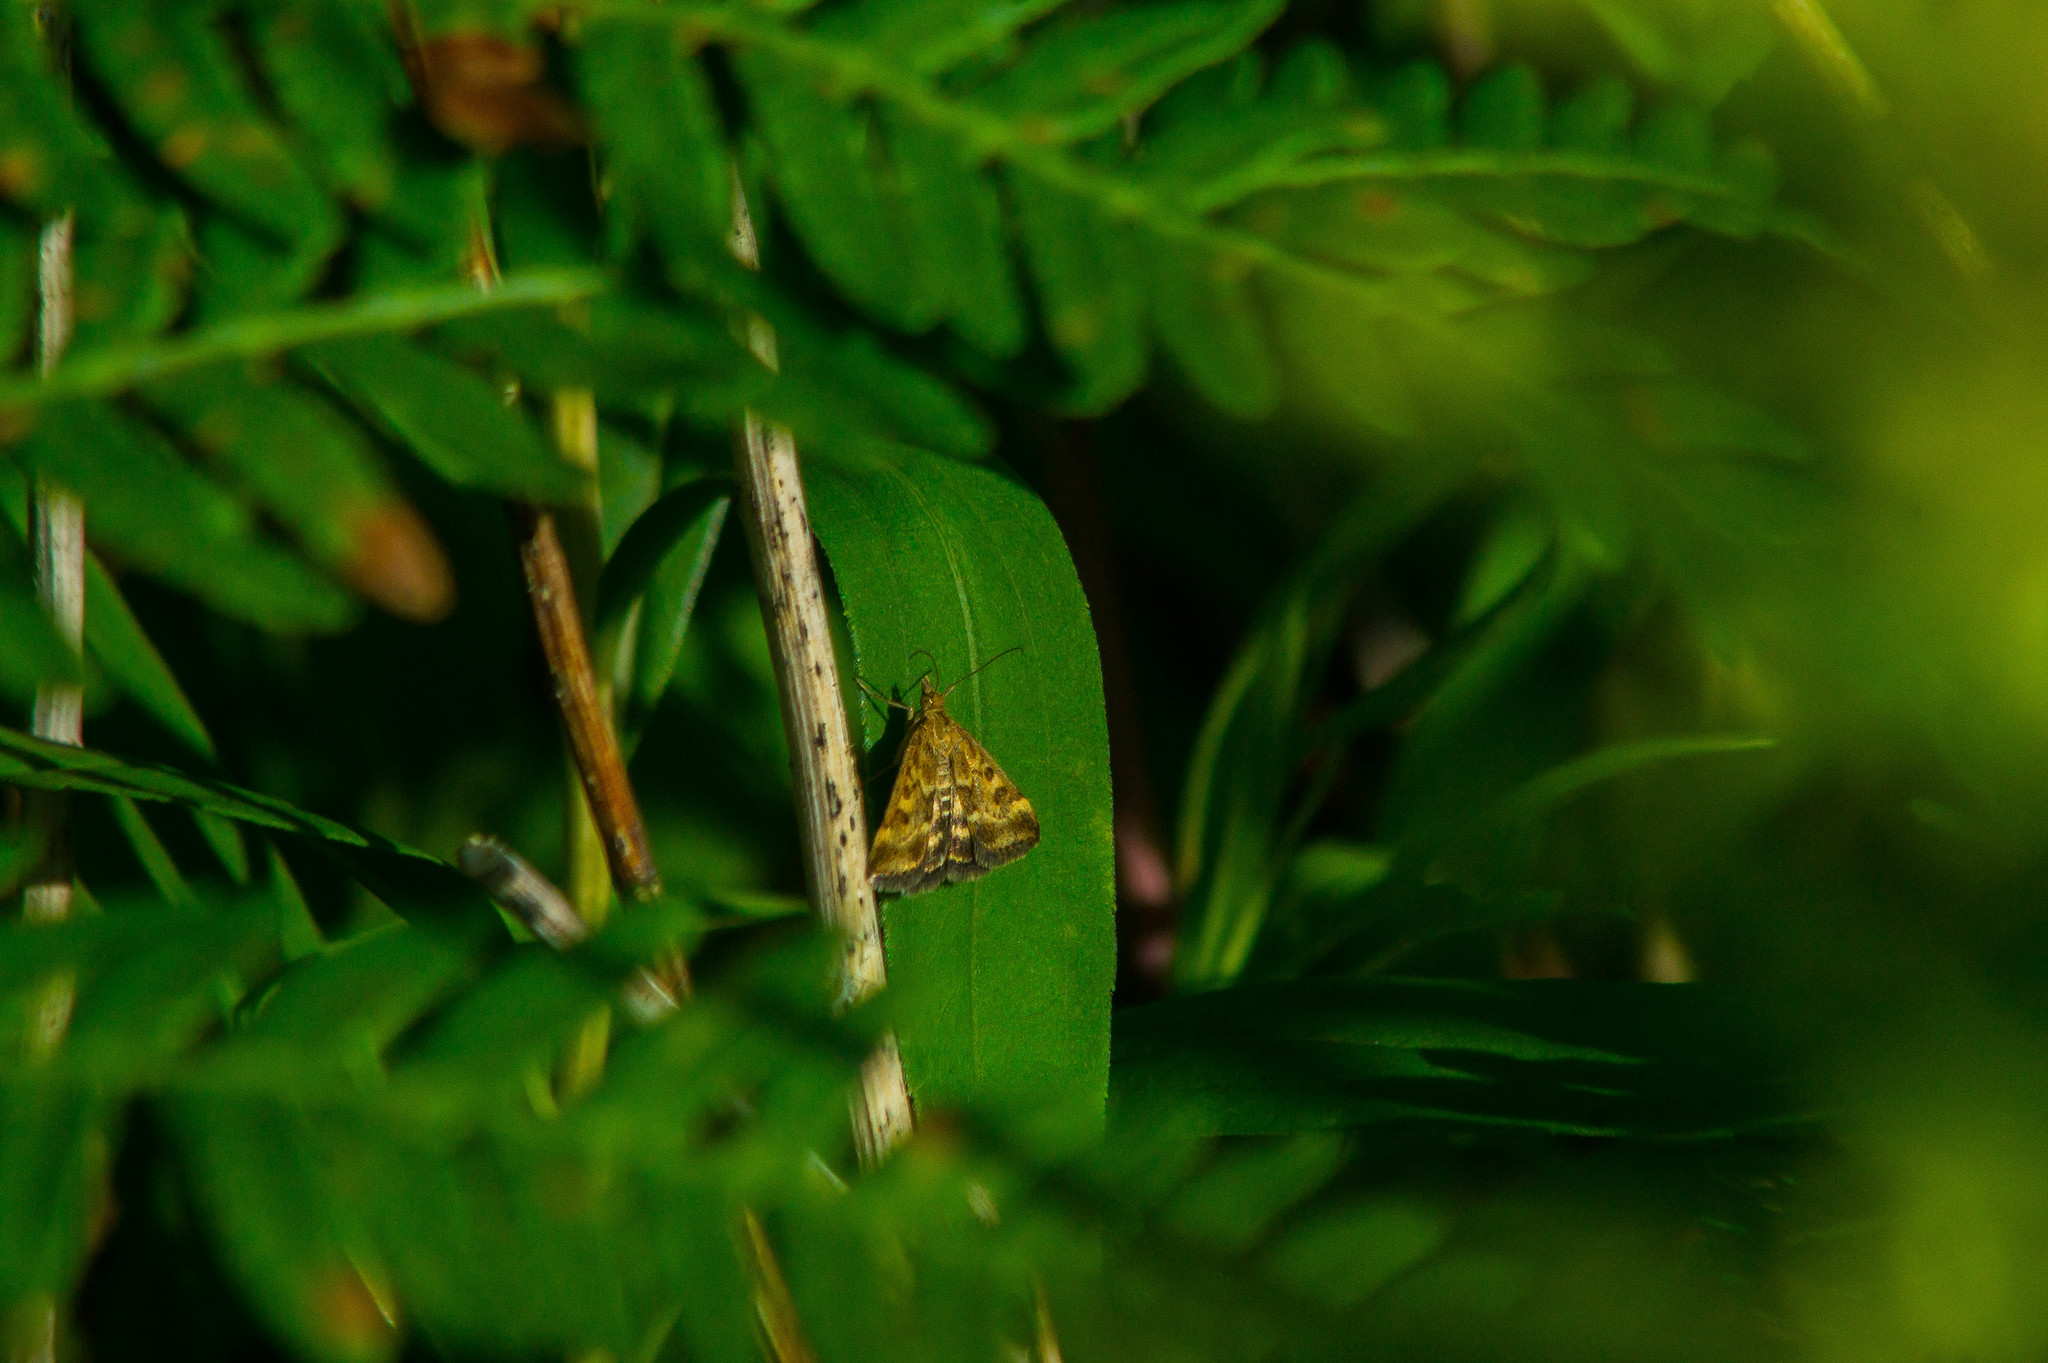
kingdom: Animalia
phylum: Arthropoda
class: Insecta
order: Lepidoptera
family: Crambidae
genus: Pyrausta
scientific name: Pyrausta despicata
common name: Straw-barred pearl
